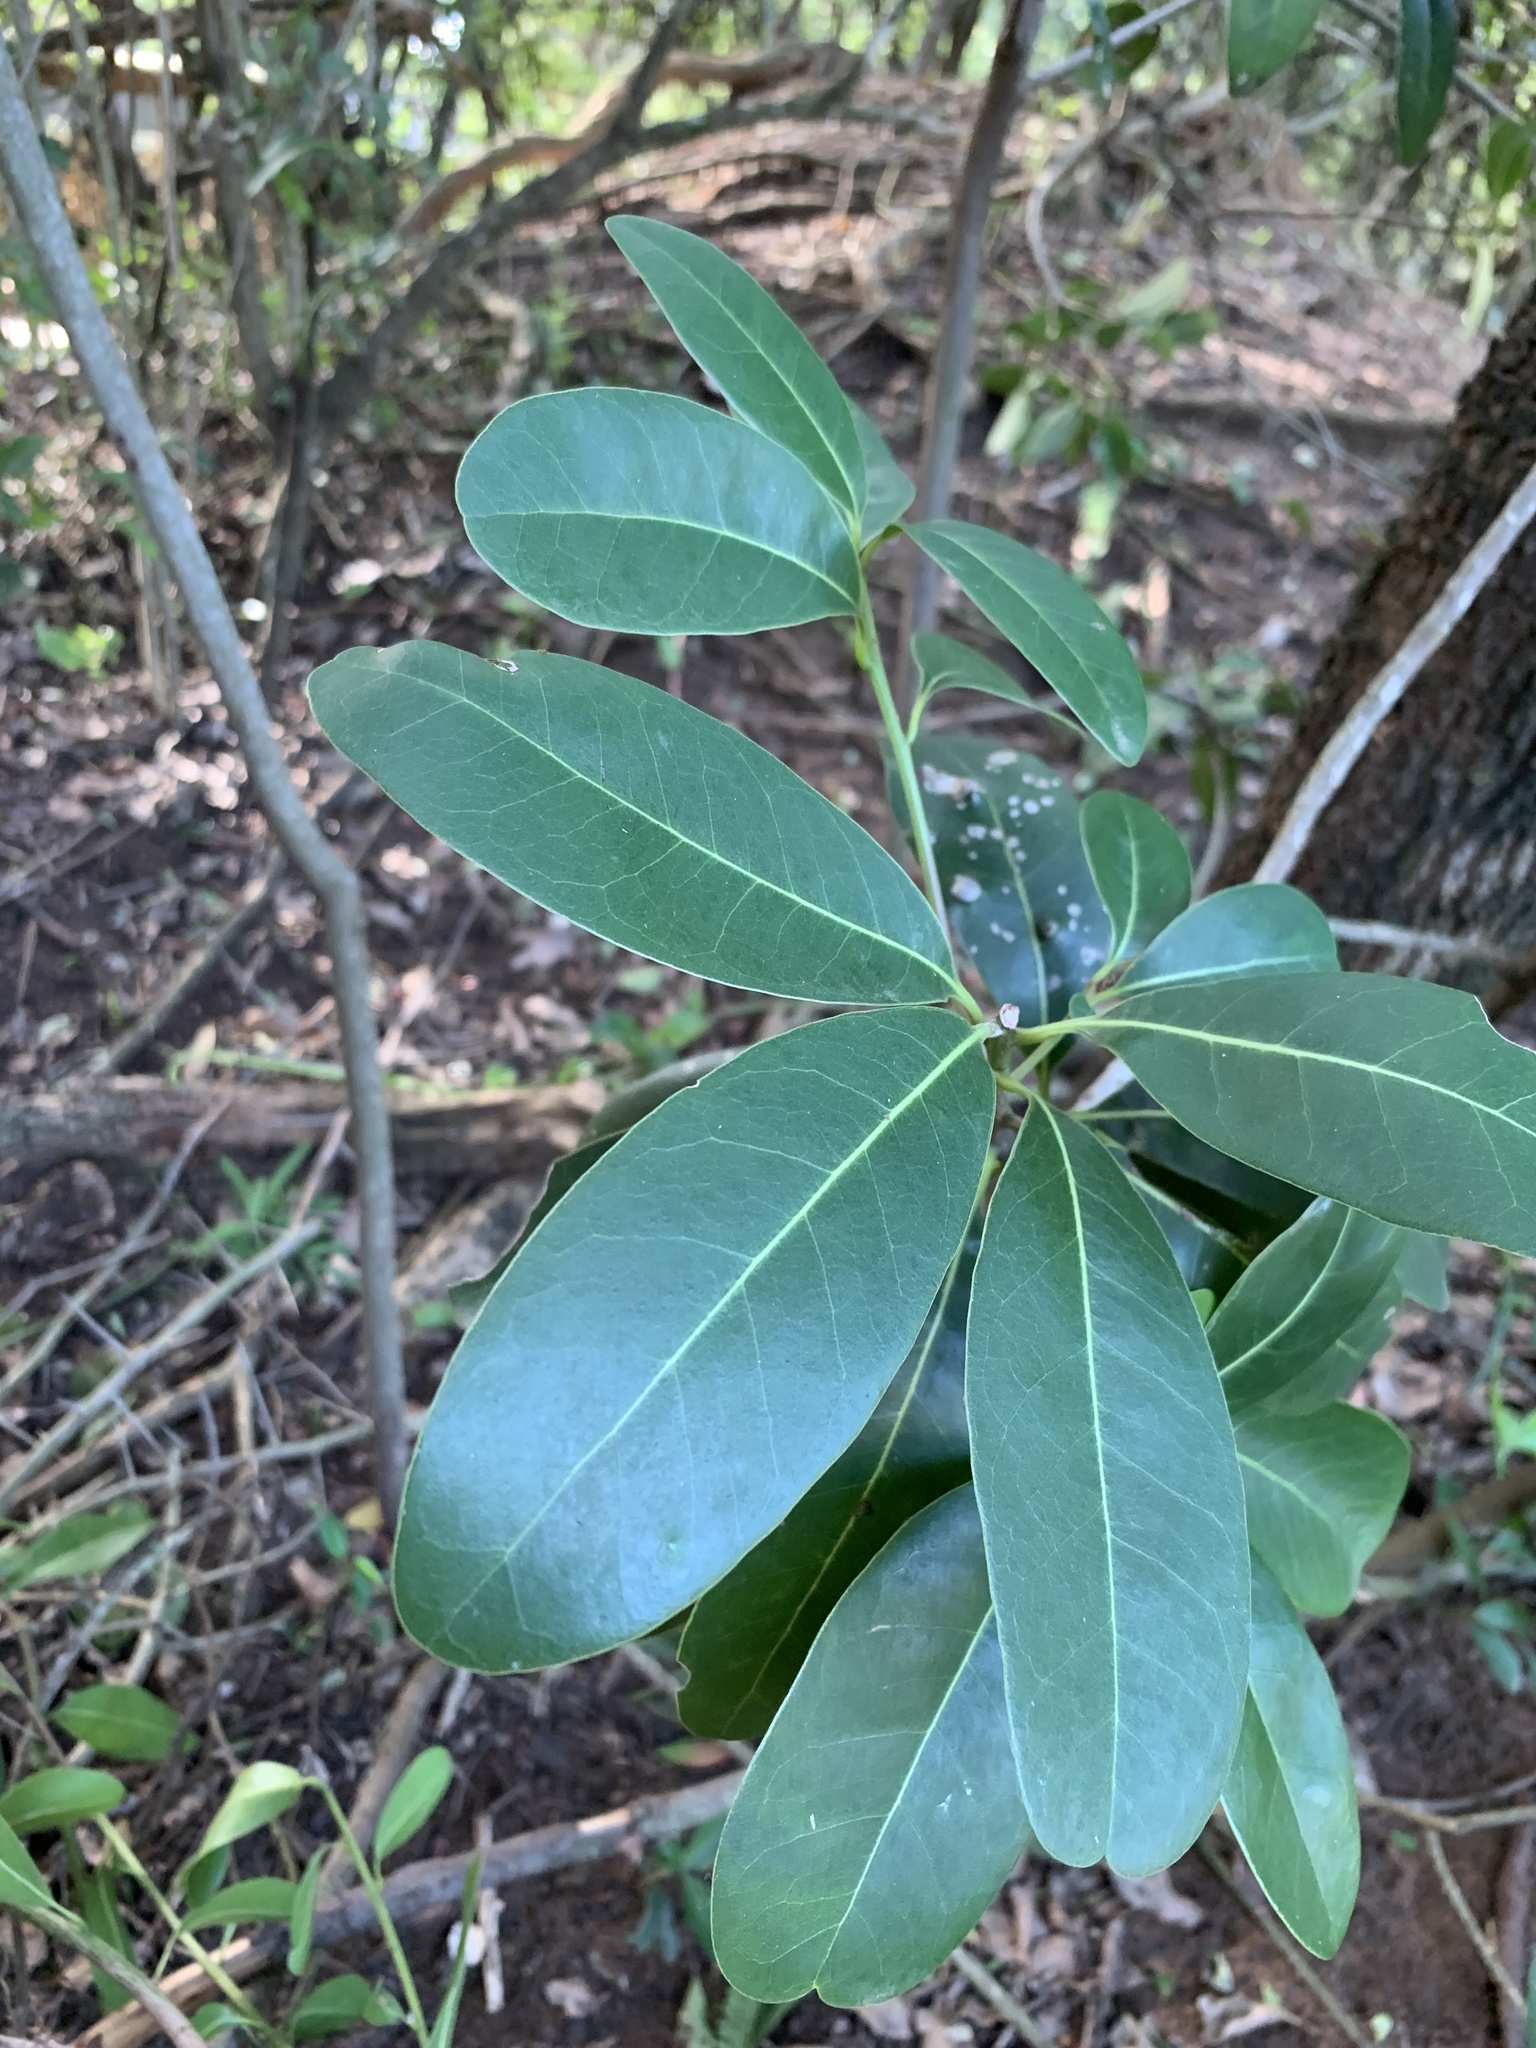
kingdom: Plantae
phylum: Tracheophyta
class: Magnoliopsida
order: Ericales
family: Sapotaceae
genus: Sideroxylon
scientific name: Sideroxylon inerme
